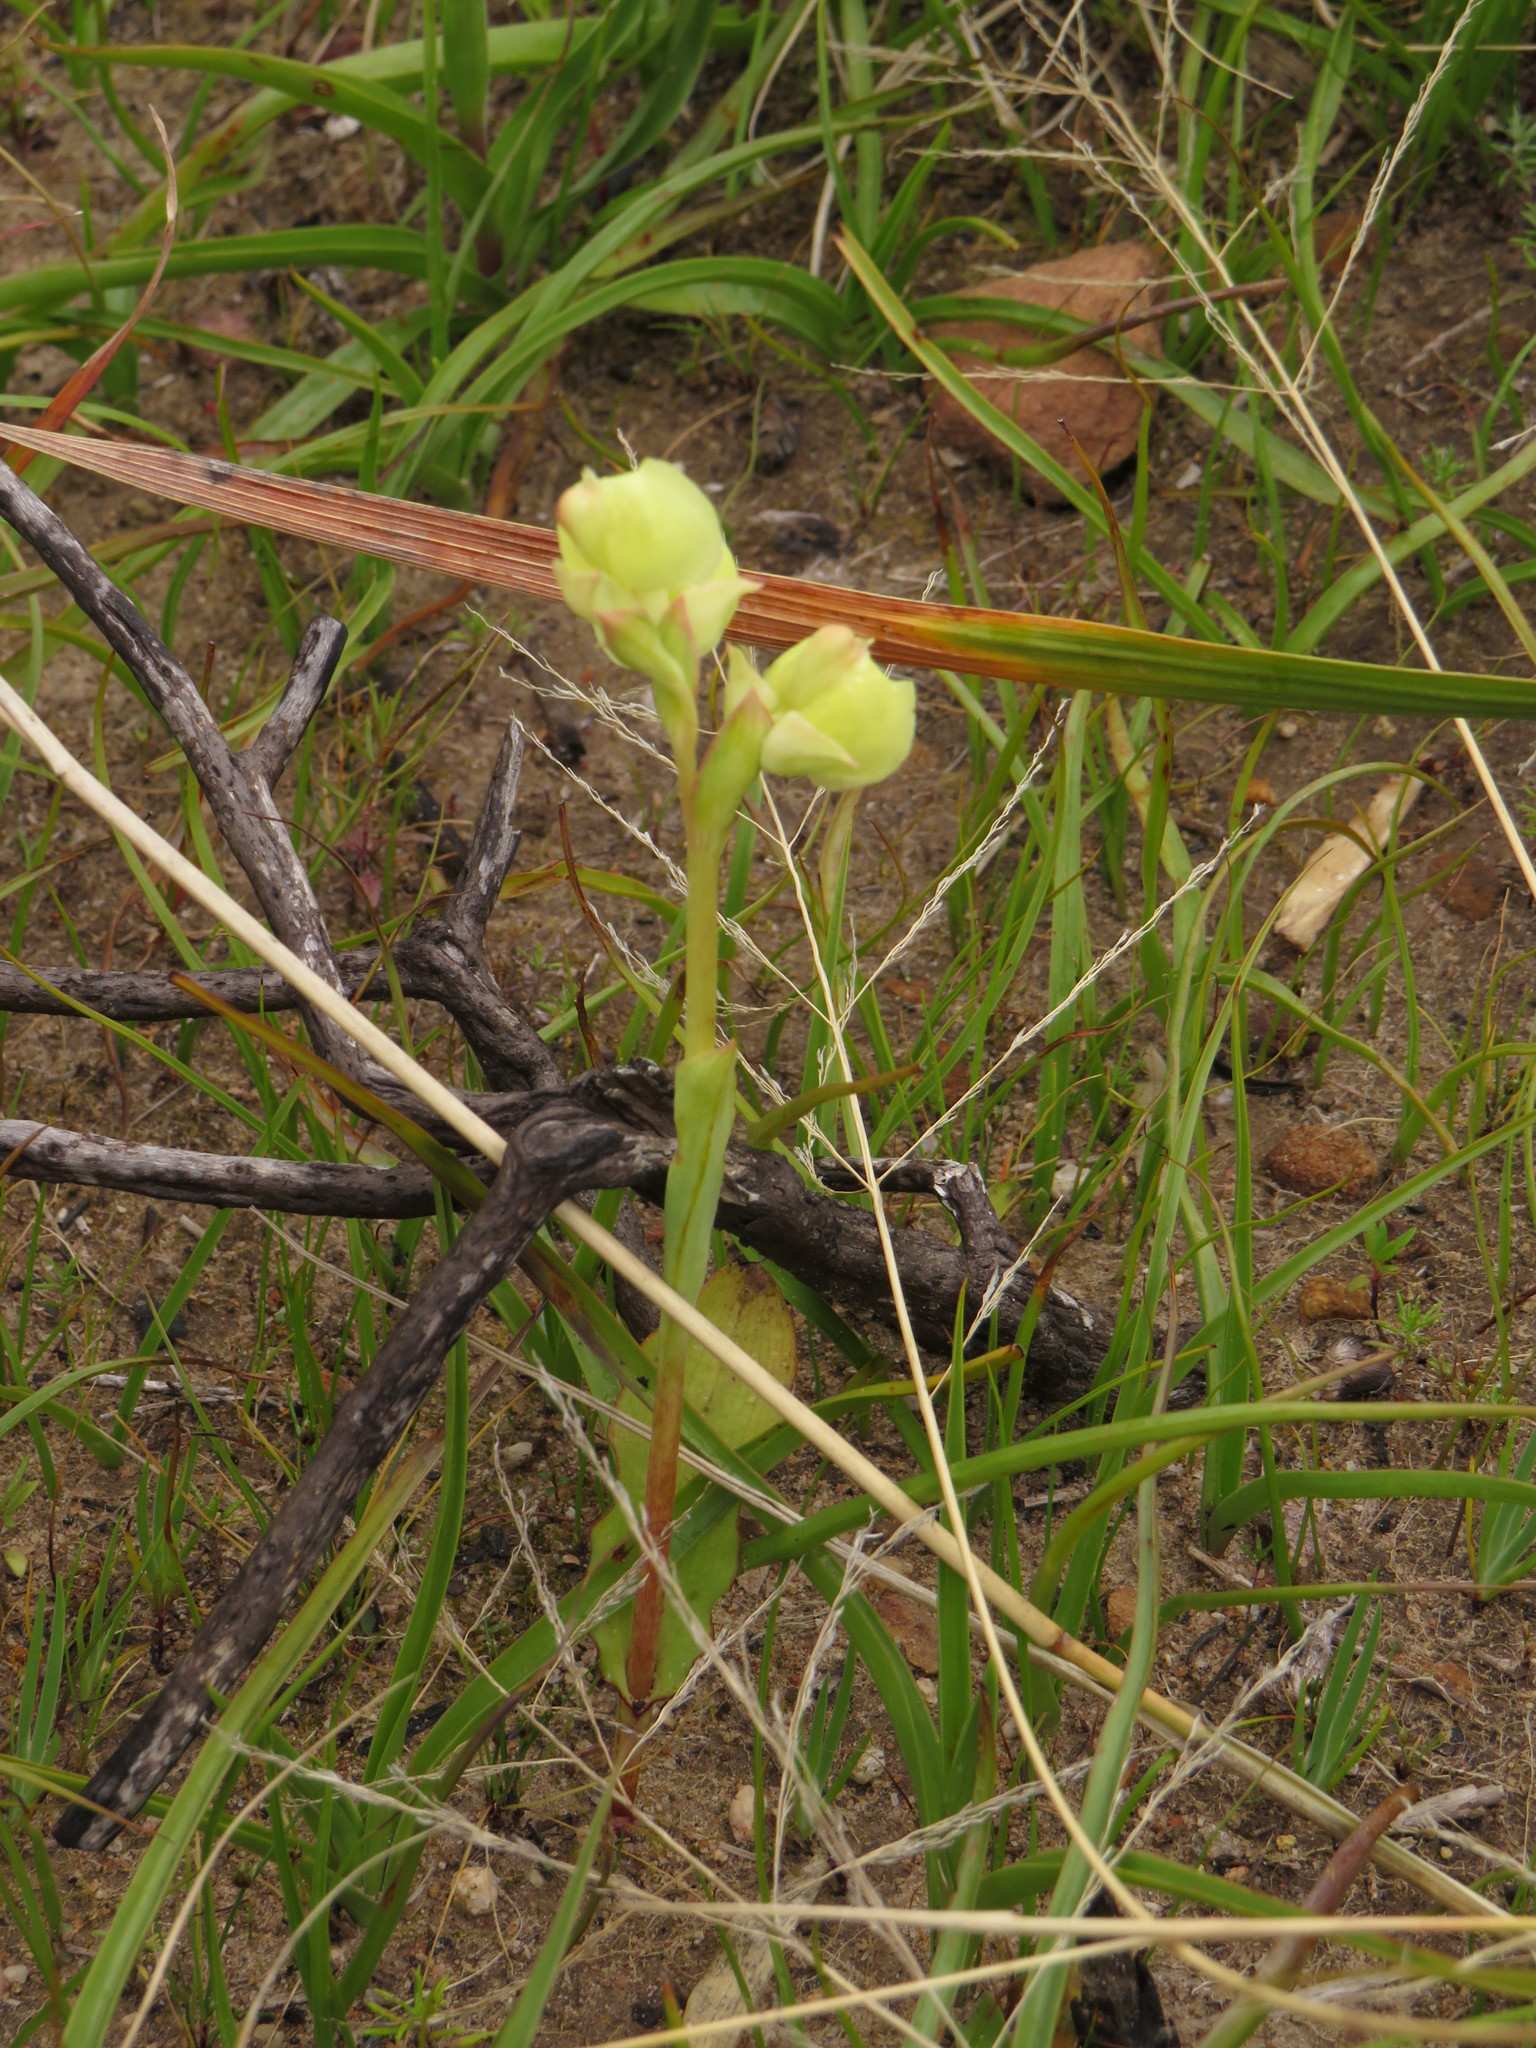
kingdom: Plantae
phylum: Tracheophyta
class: Liliopsida
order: Asparagales
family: Orchidaceae
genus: Pterygodium
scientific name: Pterygodium catholicum
